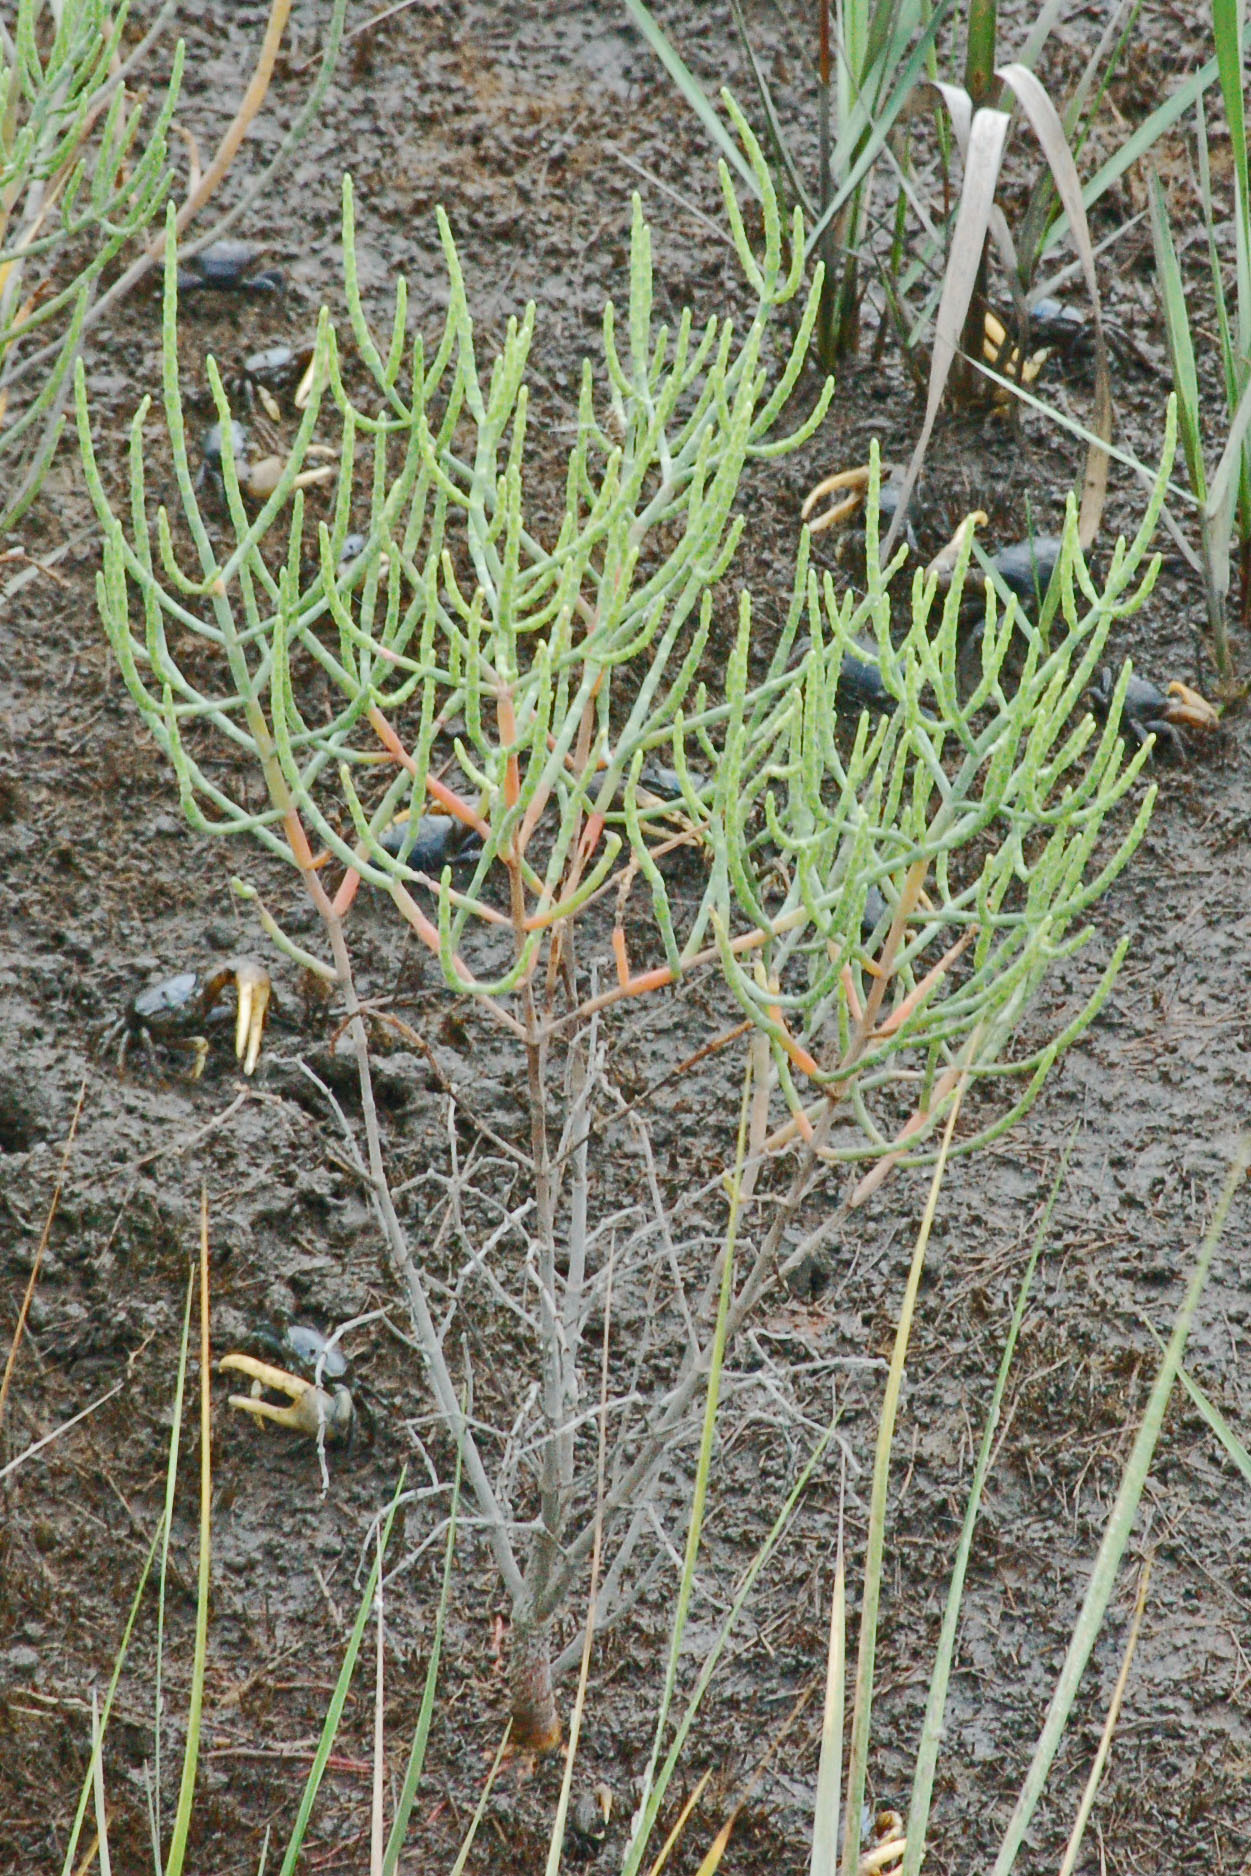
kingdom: Plantae
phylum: Tracheophyta
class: Magnoliopsida
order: Caryophyllales
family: Amaranthaceae
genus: Salicornia
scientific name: Salicornia virginica
